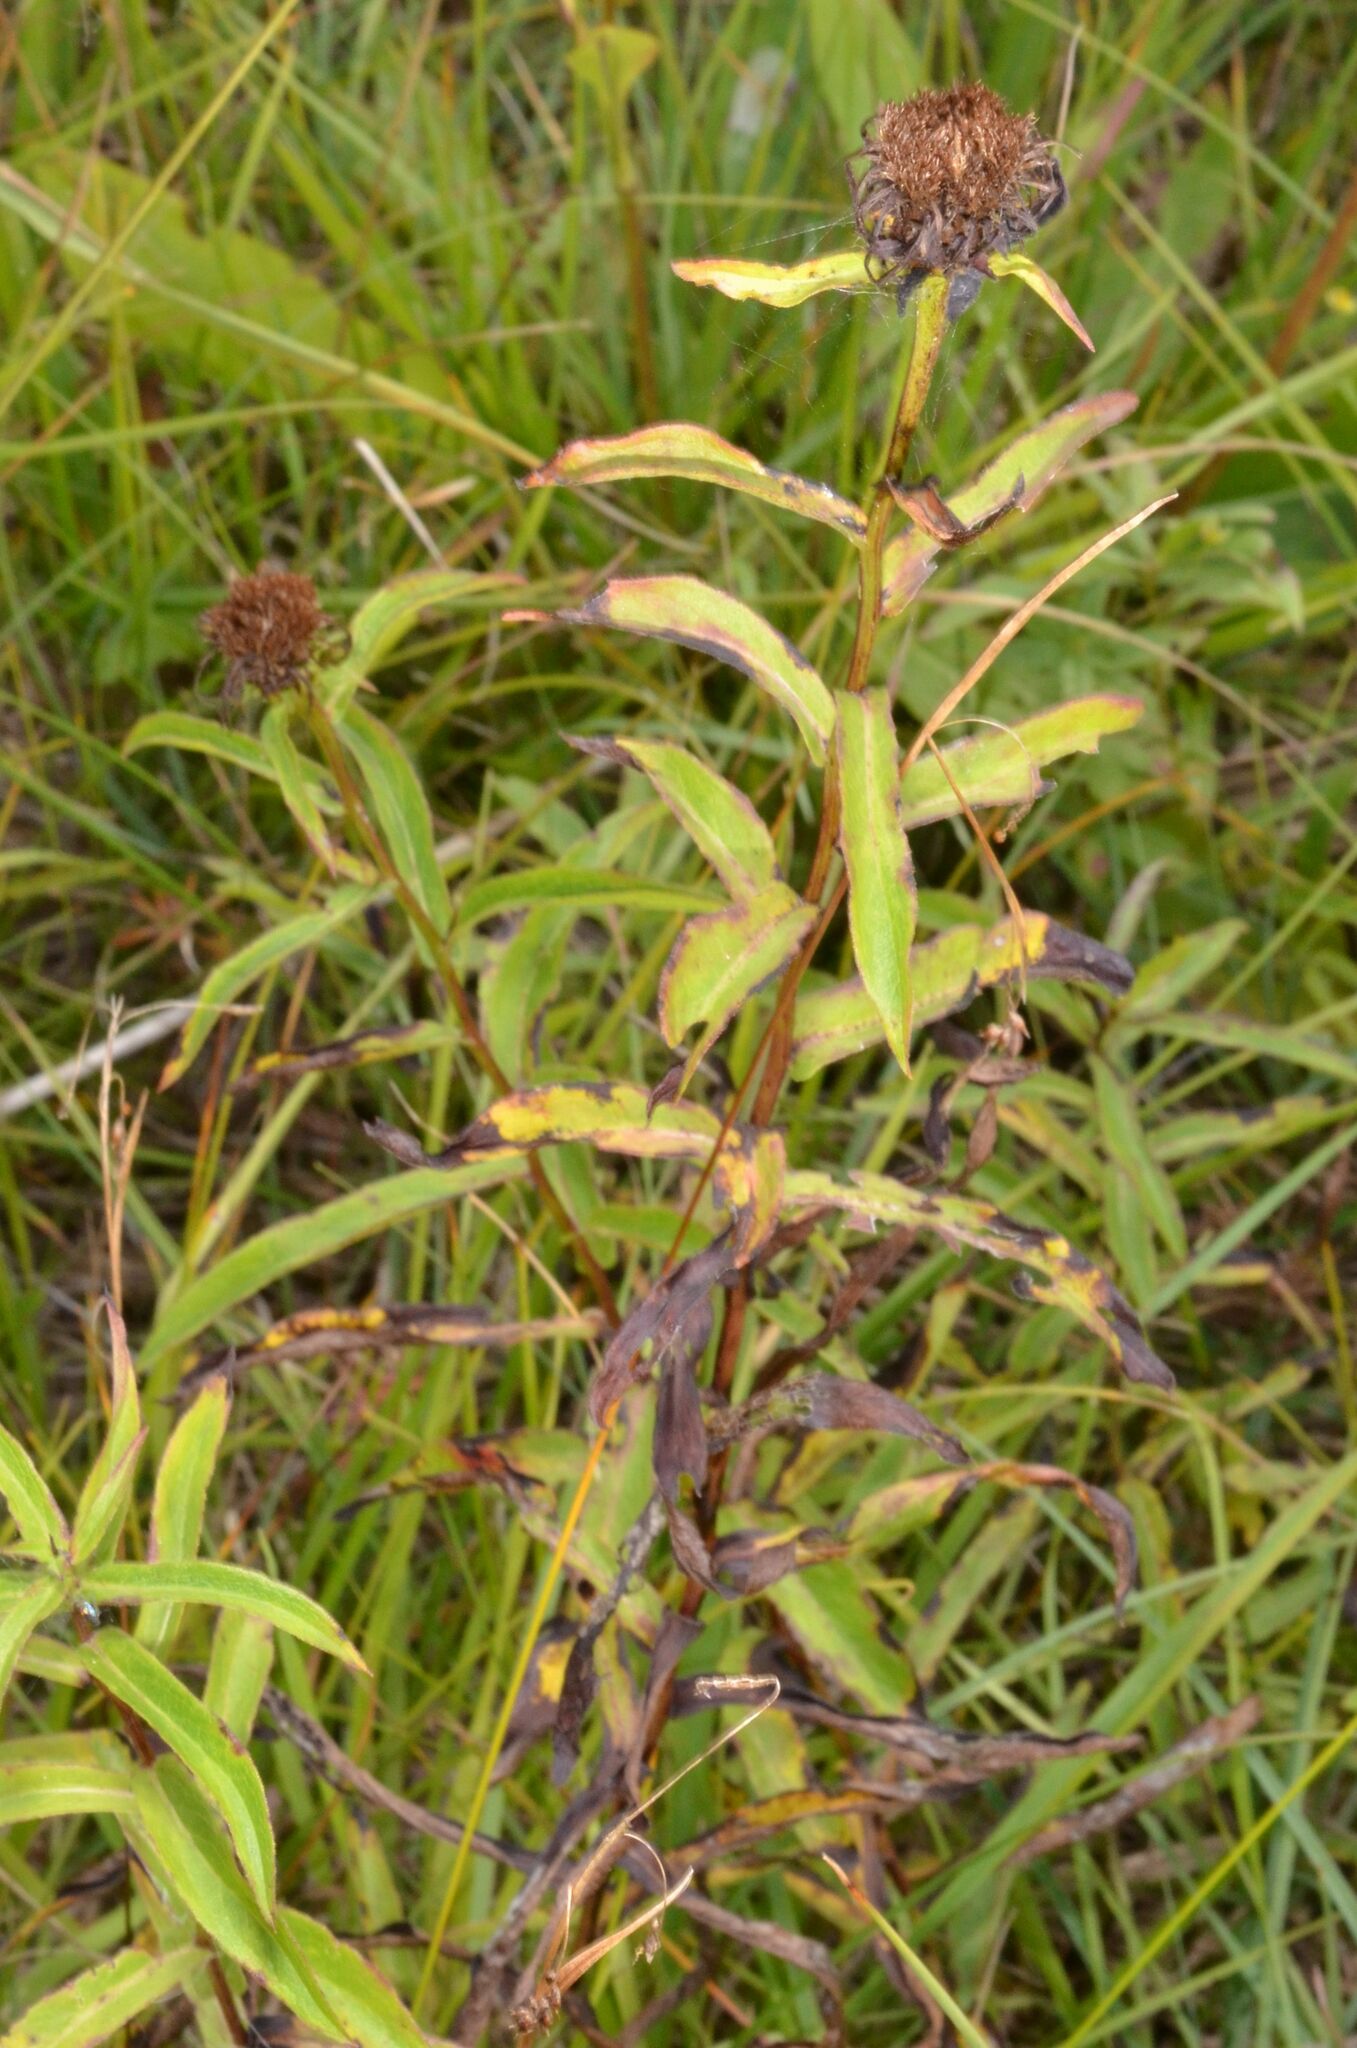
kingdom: Plantae
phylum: Tracheophyta
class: Magnoliopsida
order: Asterales
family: Asteraceae
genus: Pentanema
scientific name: Pentanema salicinum
